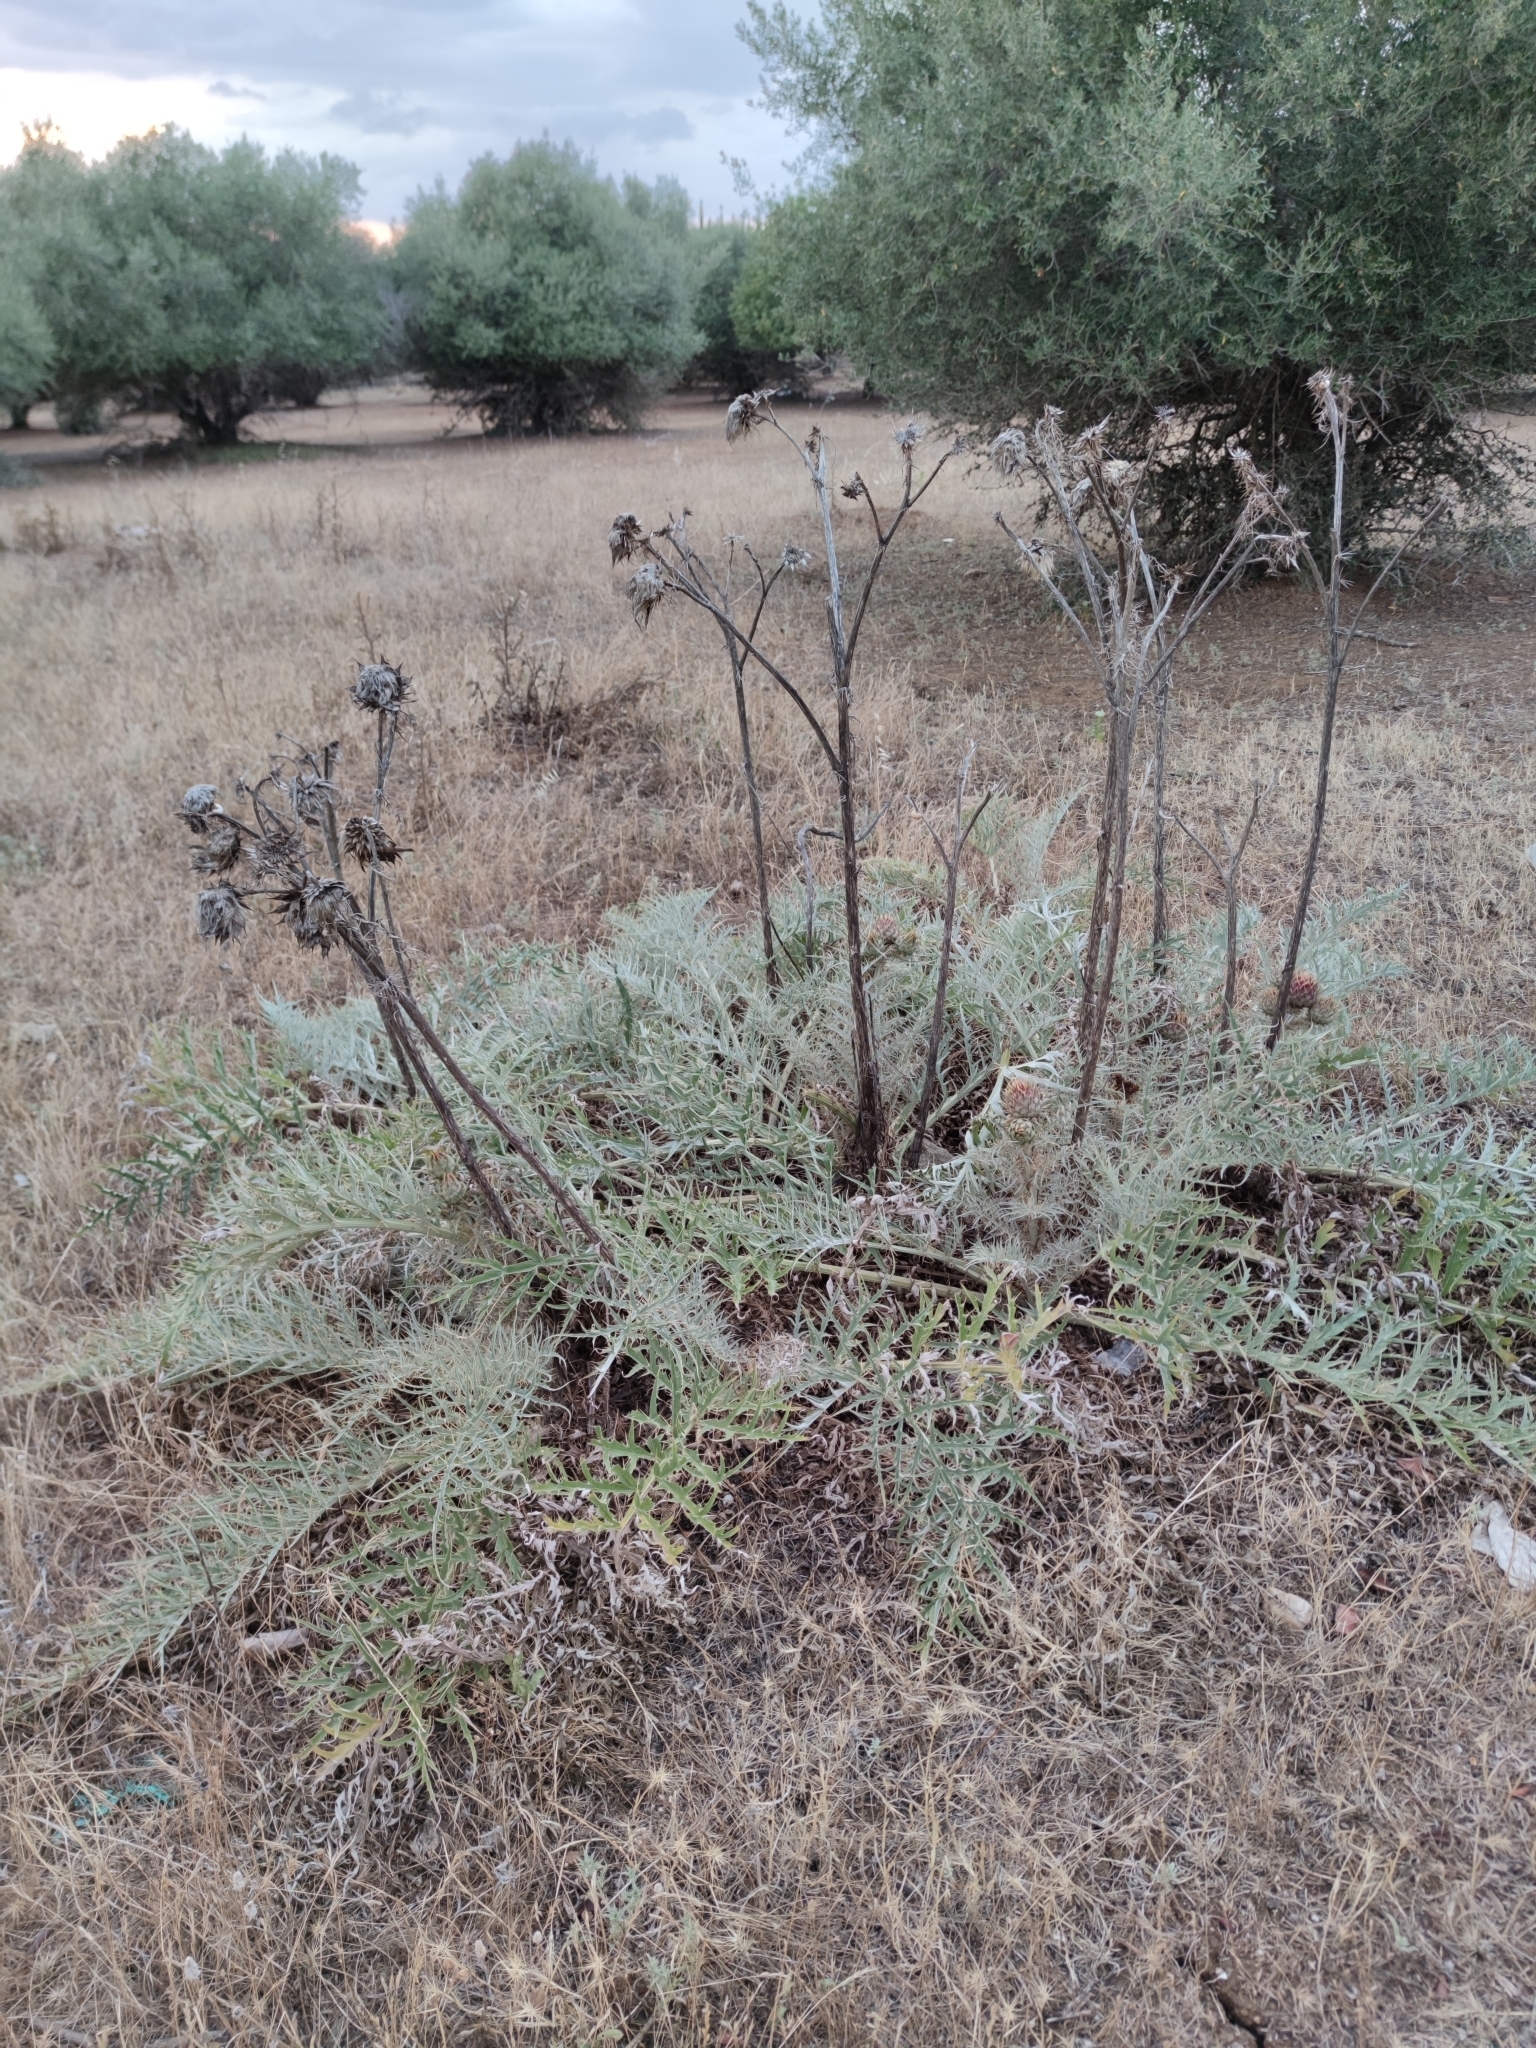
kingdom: Plantae
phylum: Tracheophyta
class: Magnoliopsida
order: Asterales
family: Asteraceae
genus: Cynara
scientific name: Cynara cardunculus
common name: Globe artichoke
